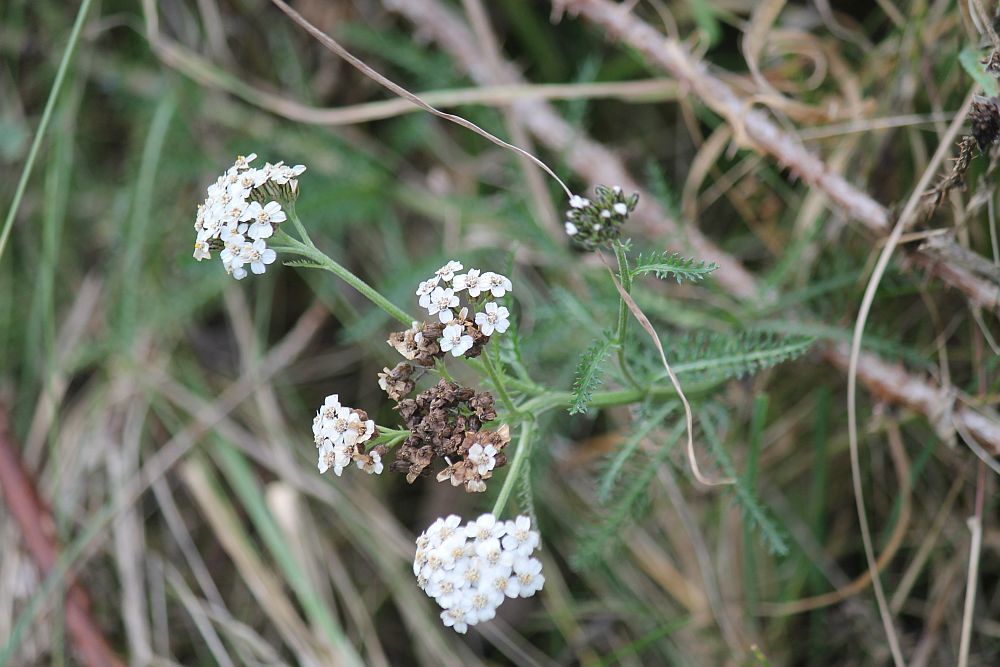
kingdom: Plantae
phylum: Tracheophyta
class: Magnoliopsida
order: Asterales
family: Asteraceae
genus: Achillea
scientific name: Achillea millefolium
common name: Yarrow
